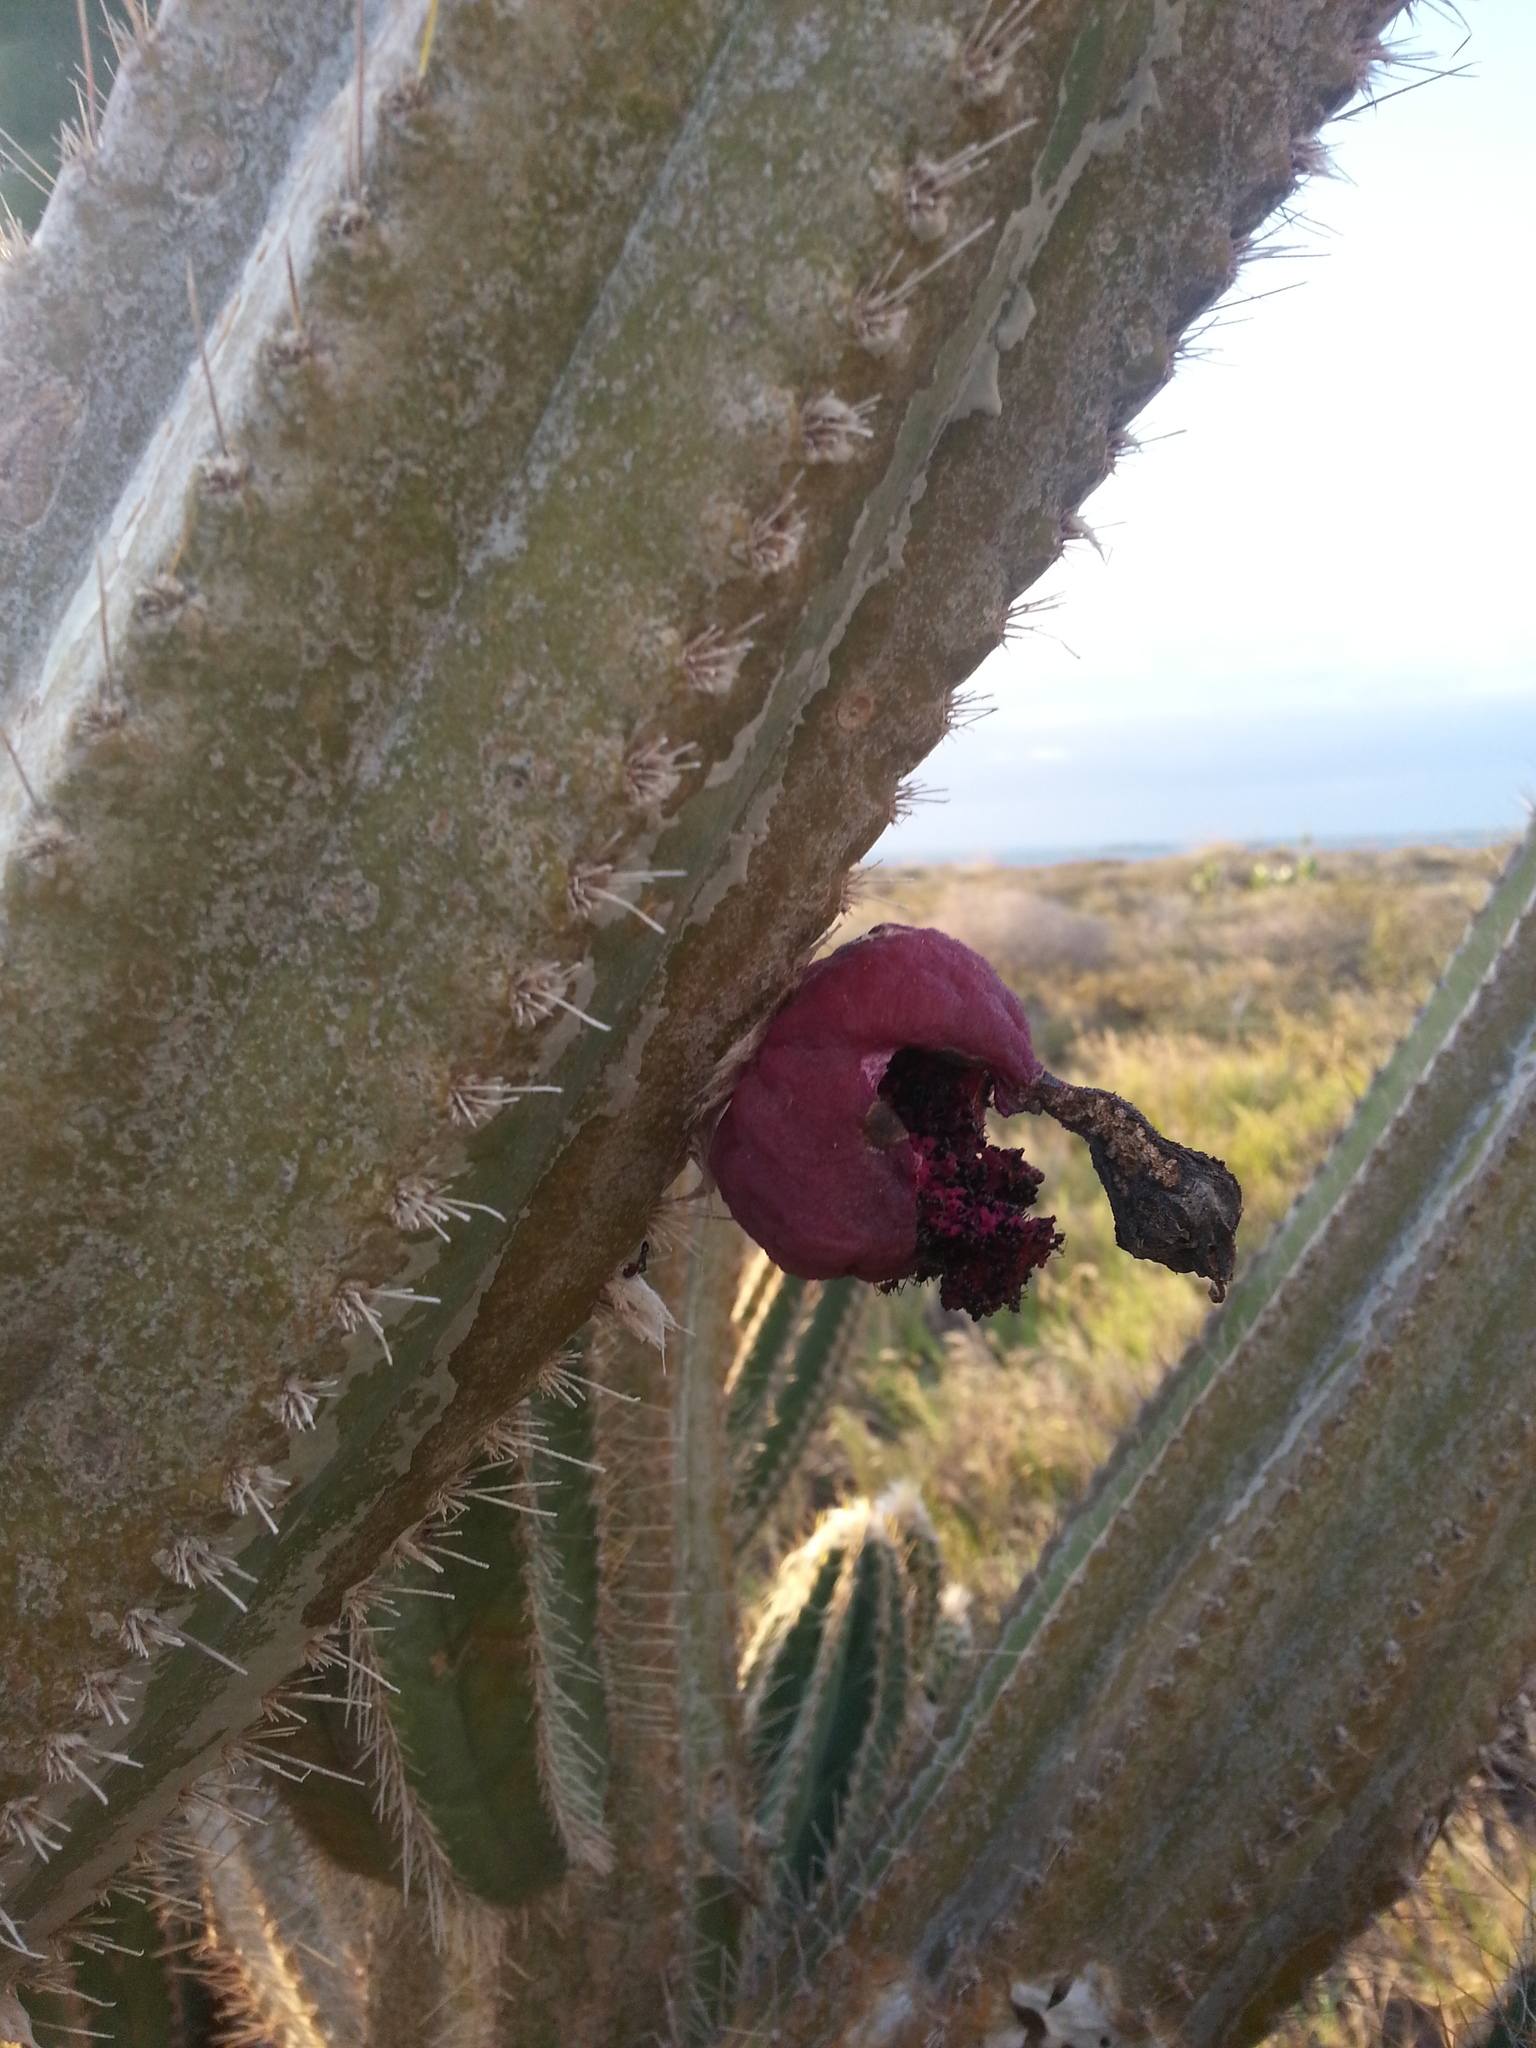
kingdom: Plantae
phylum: Tracheophyta
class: Magnoliopsida
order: Caryophyllales
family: Cactaceae
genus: Pilosocereus
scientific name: Pilosocereus armatus
